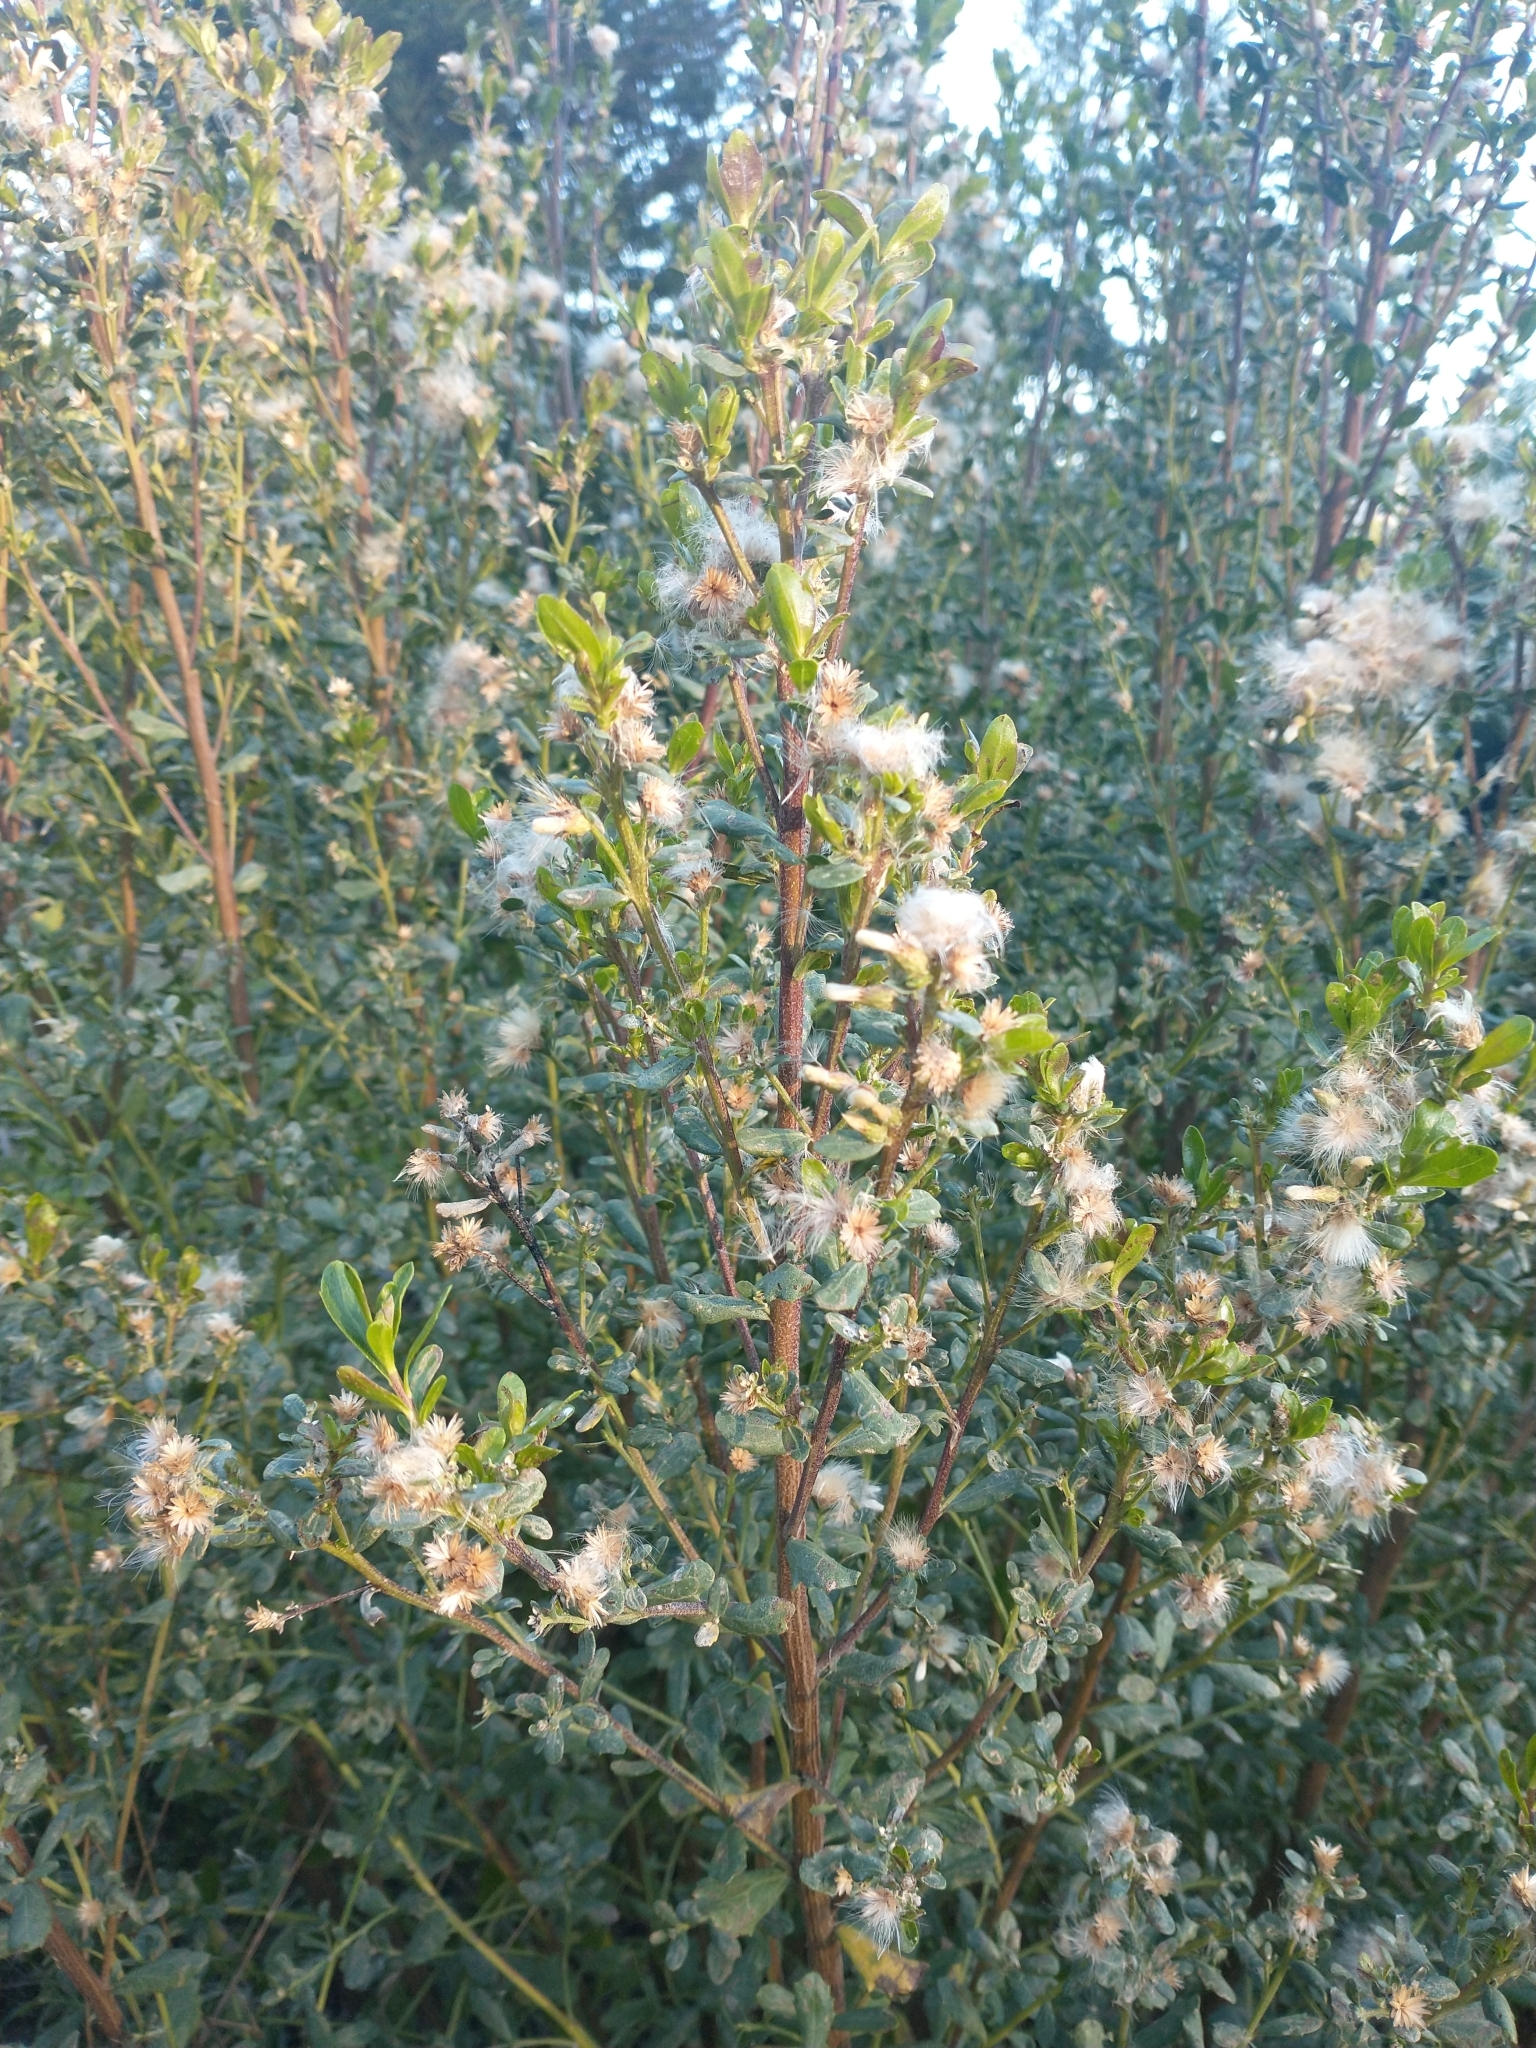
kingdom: Plantae
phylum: Tracheophyta
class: Magnoliopsida
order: Asterales
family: Asteraceae
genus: Baccharis
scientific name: Baccharis pilularis
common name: Coyotebrush
